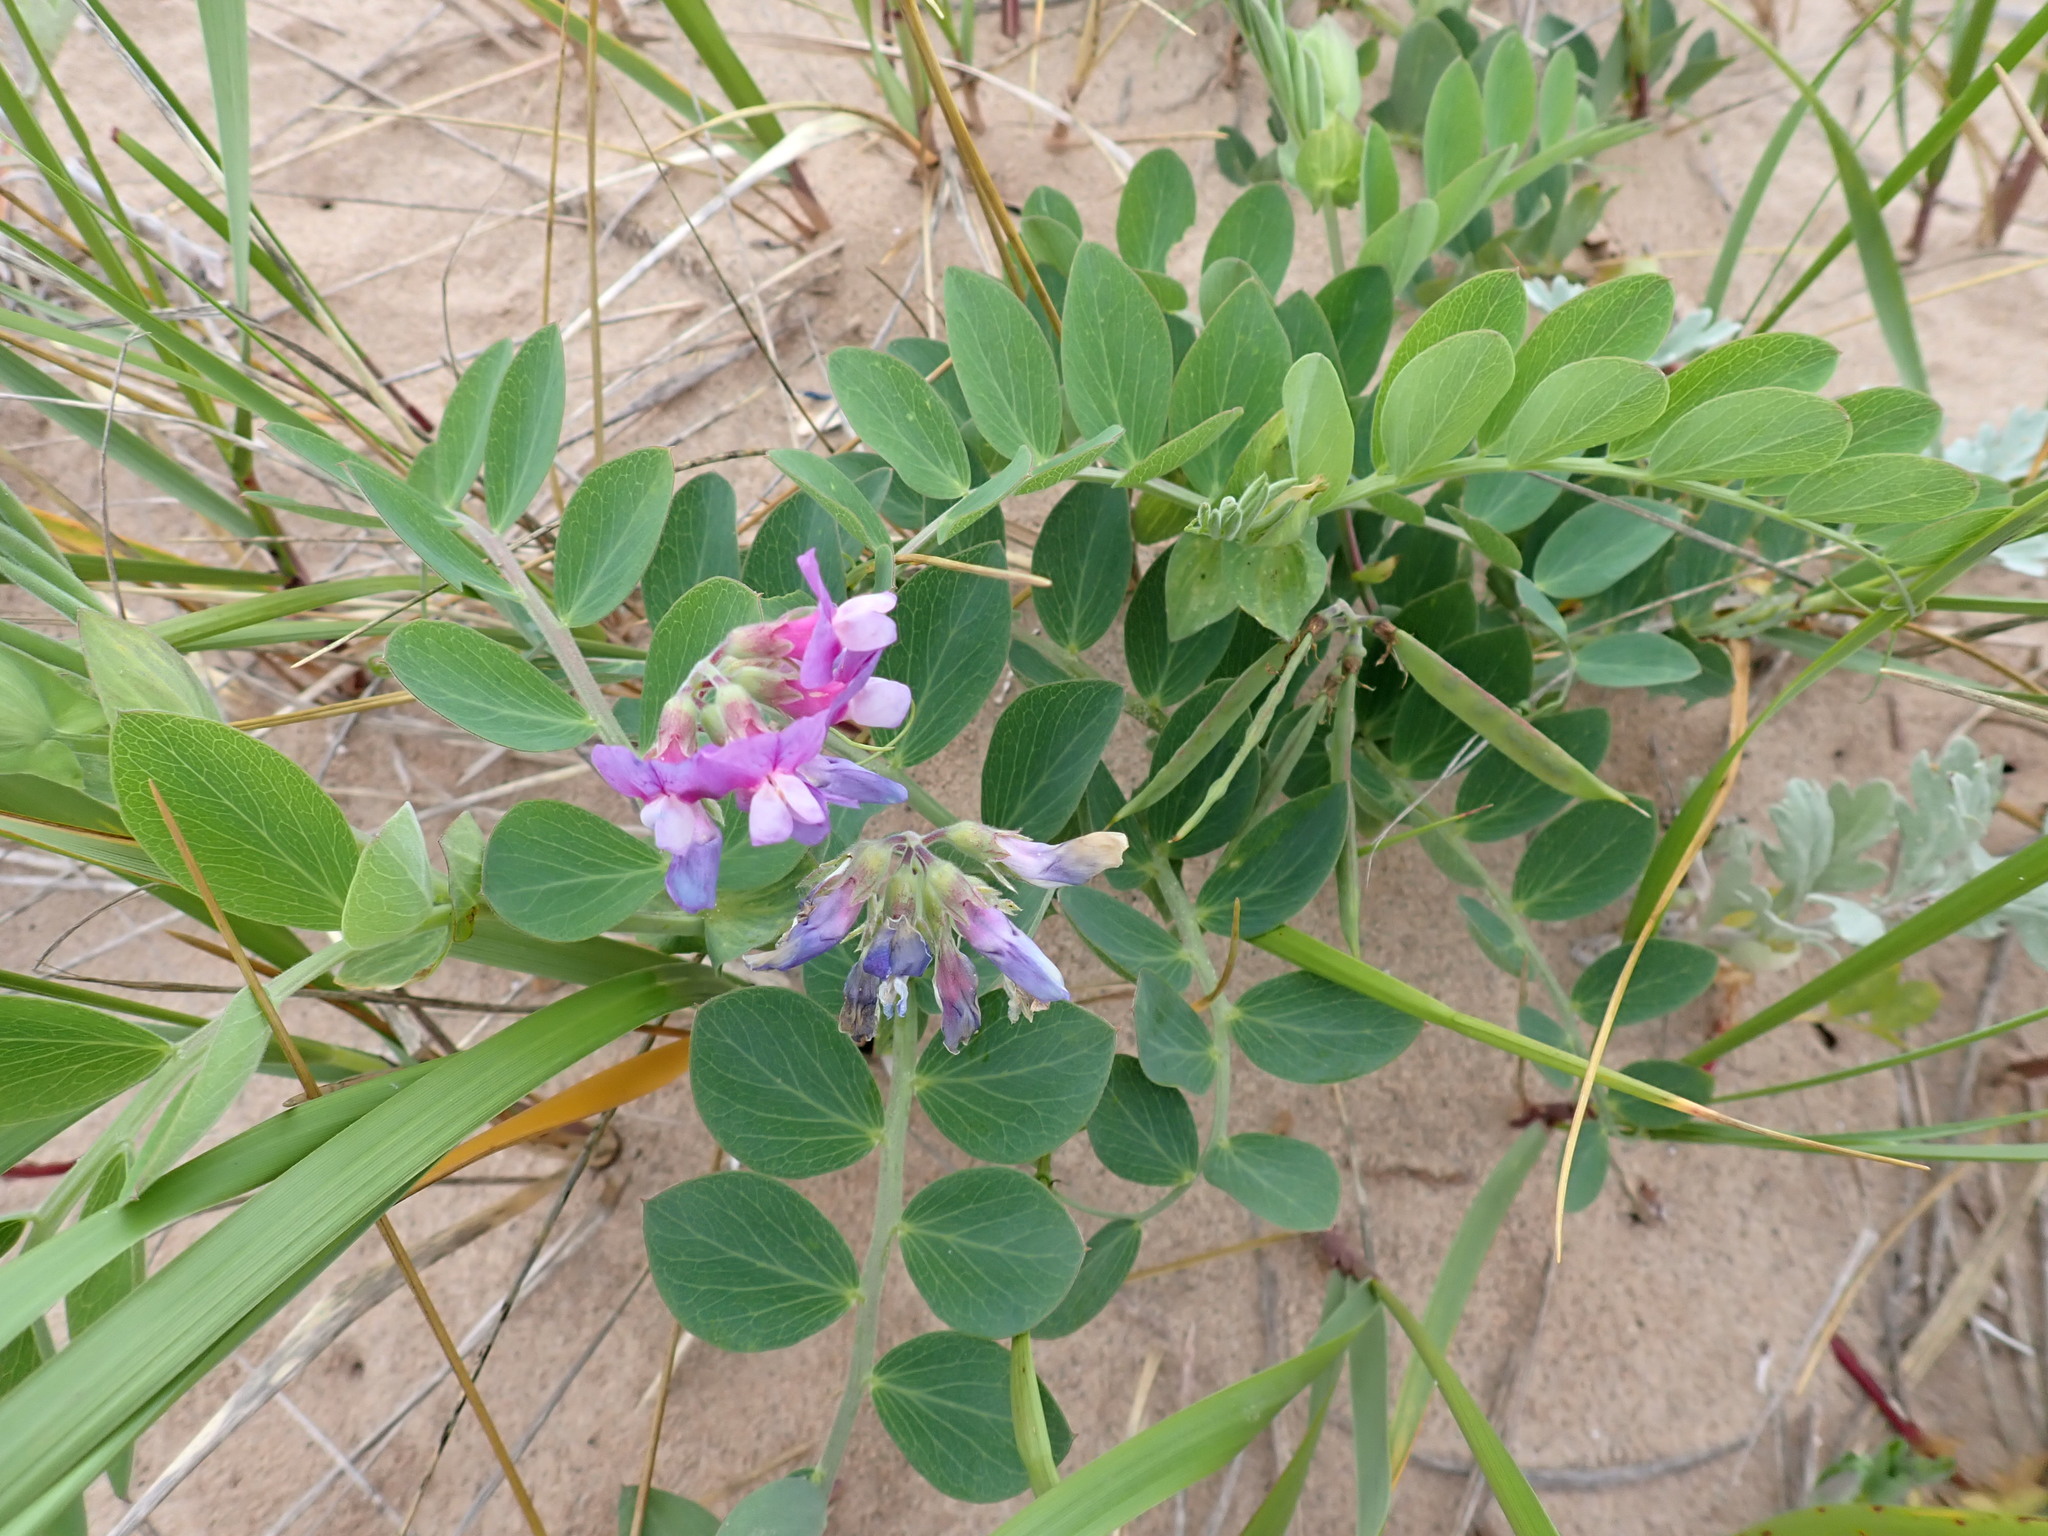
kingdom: Plantae
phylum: Tracheophyta
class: Magnoliopsida
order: Fabales
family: Fabaceae
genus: Lathyrus
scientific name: Lathyrus japonicus
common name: Sea pea
